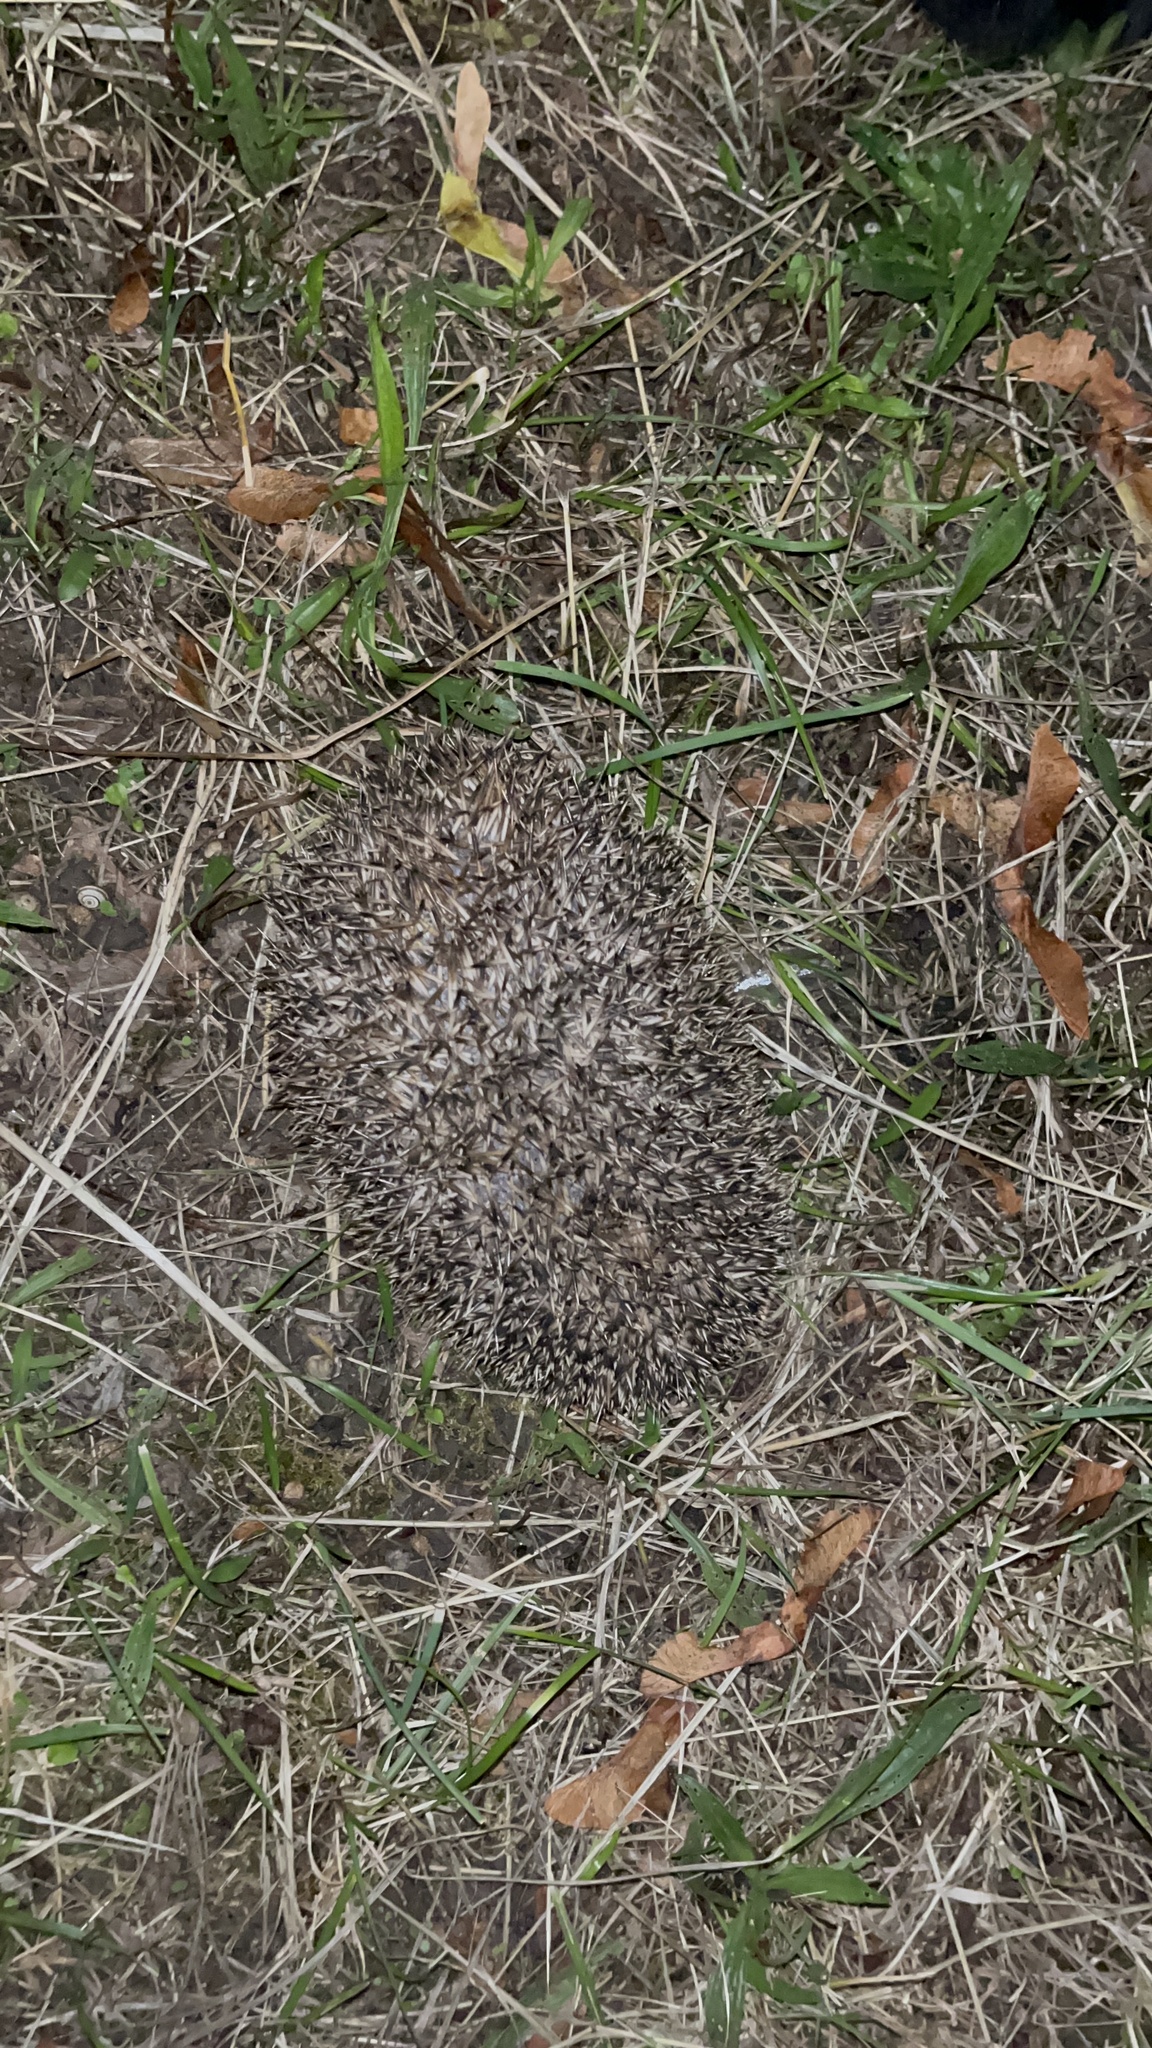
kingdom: Animalia
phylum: Chordata
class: Mammalia
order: Erinaceomorpha
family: Erinaceidae
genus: Erinaceus
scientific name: Erinaceus europaeus
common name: West european hedgehog
